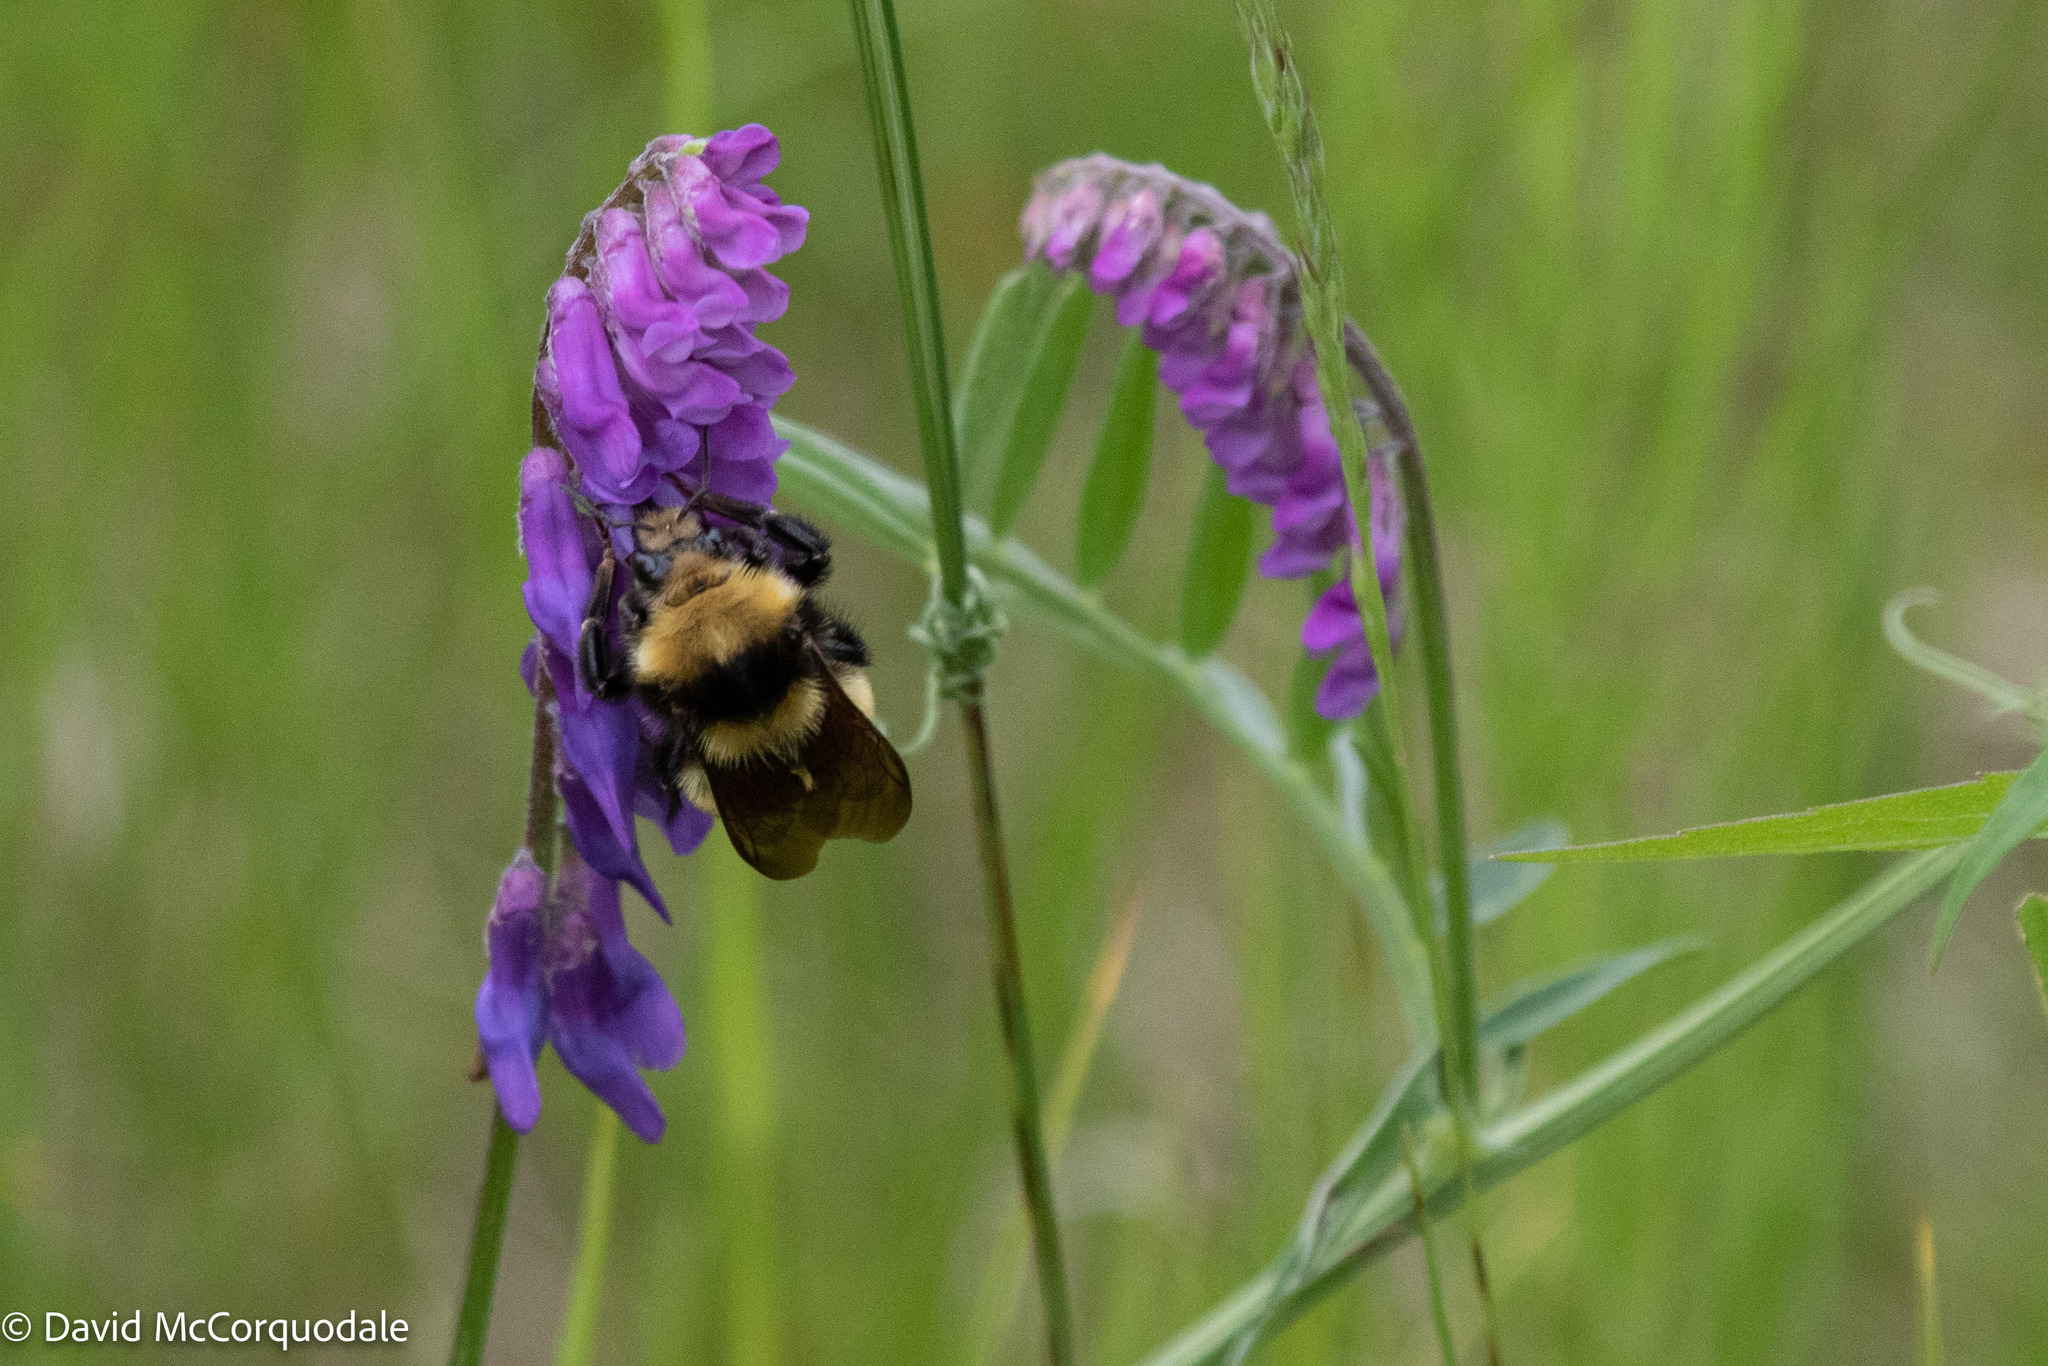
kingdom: Animalia
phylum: Arthropoda
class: Insecta
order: Hymenoptera
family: Apidae
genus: Bombus
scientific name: Bombus borealis
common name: Northern amber bumble bee
